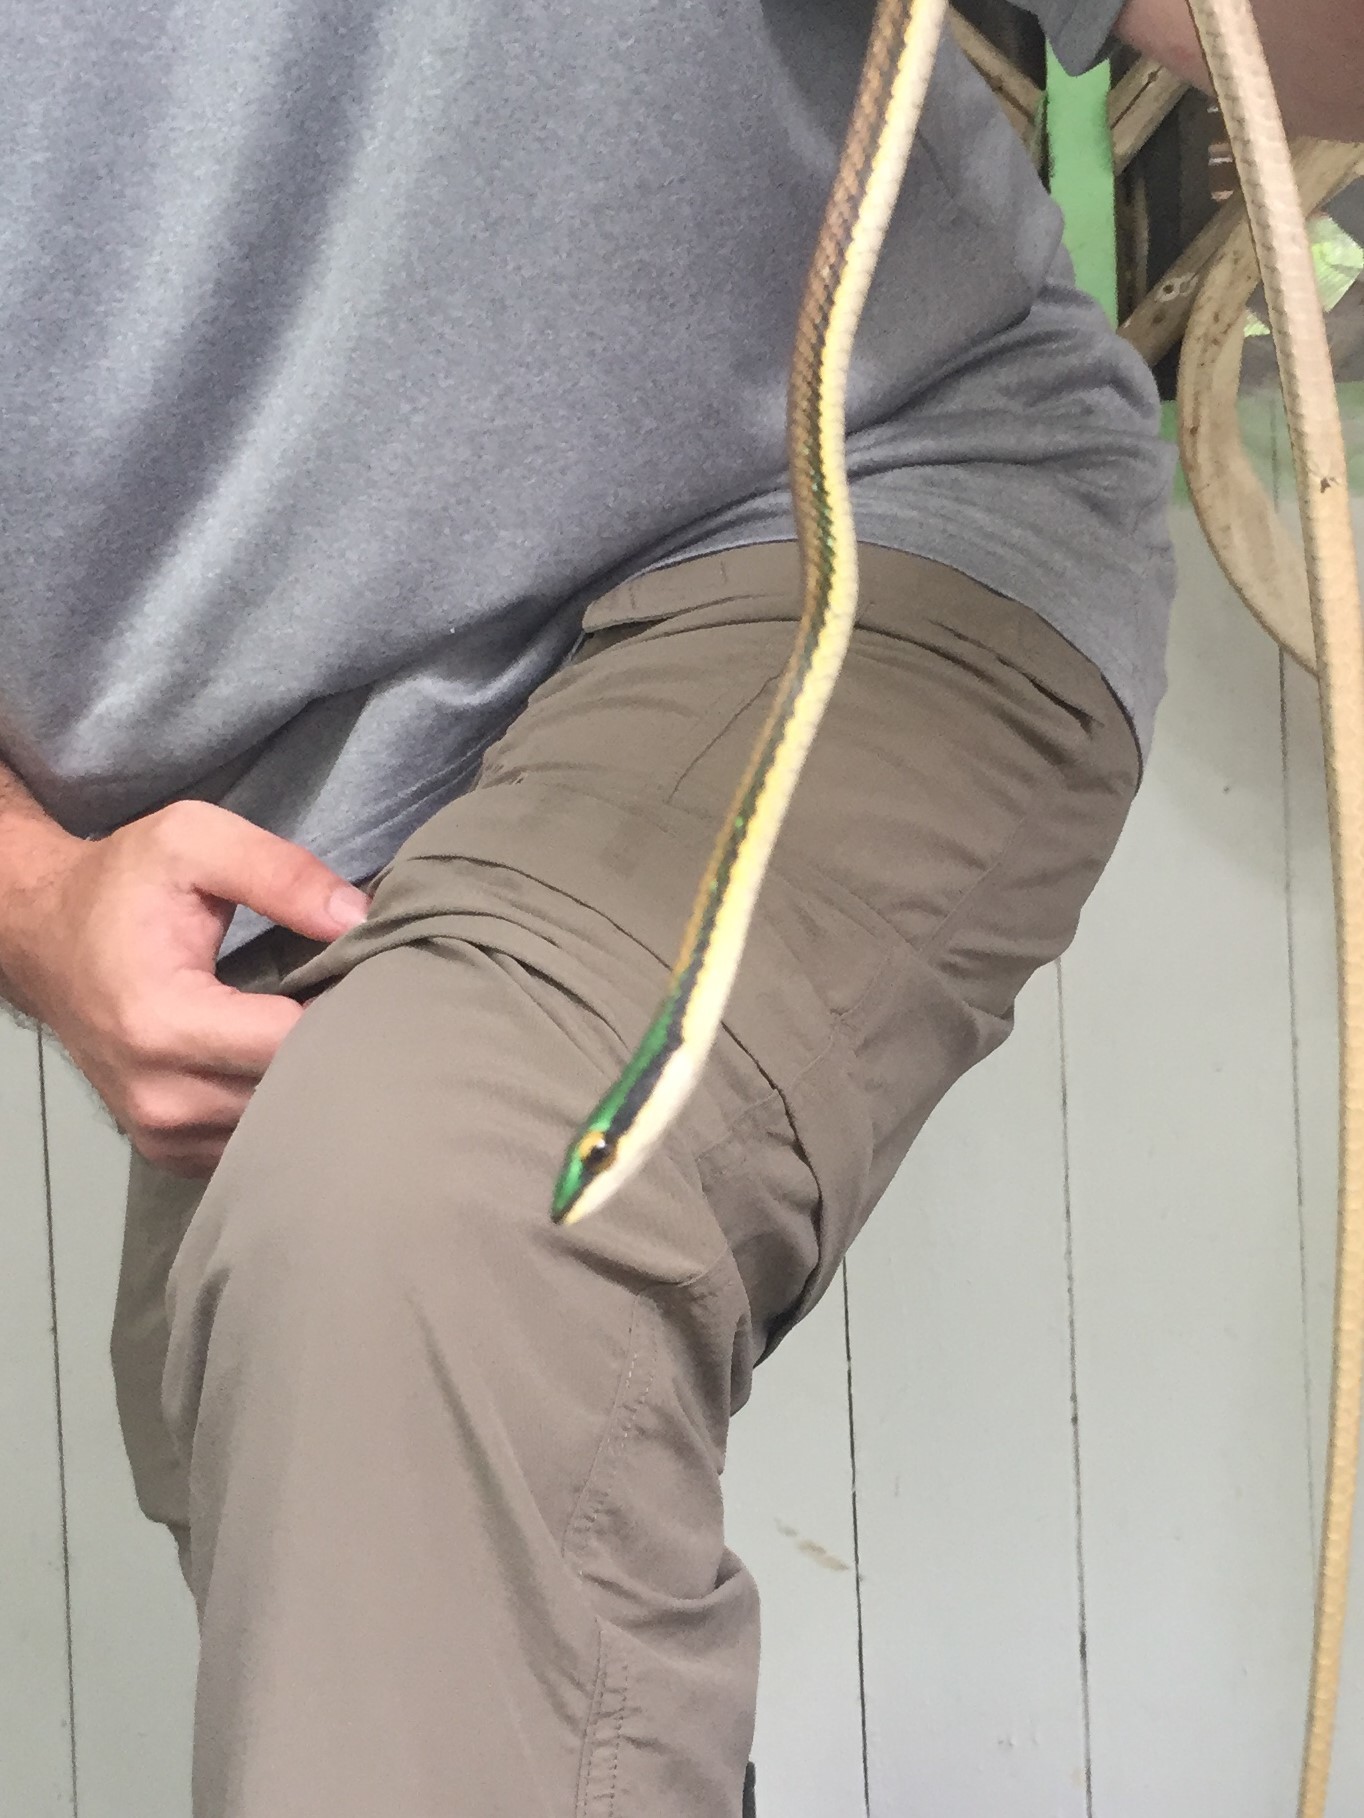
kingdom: Animalia
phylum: Chordata
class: Squamata
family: Colubridae
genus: Leptophis
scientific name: Leptophis mexicanus
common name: Mexican parrot snake
